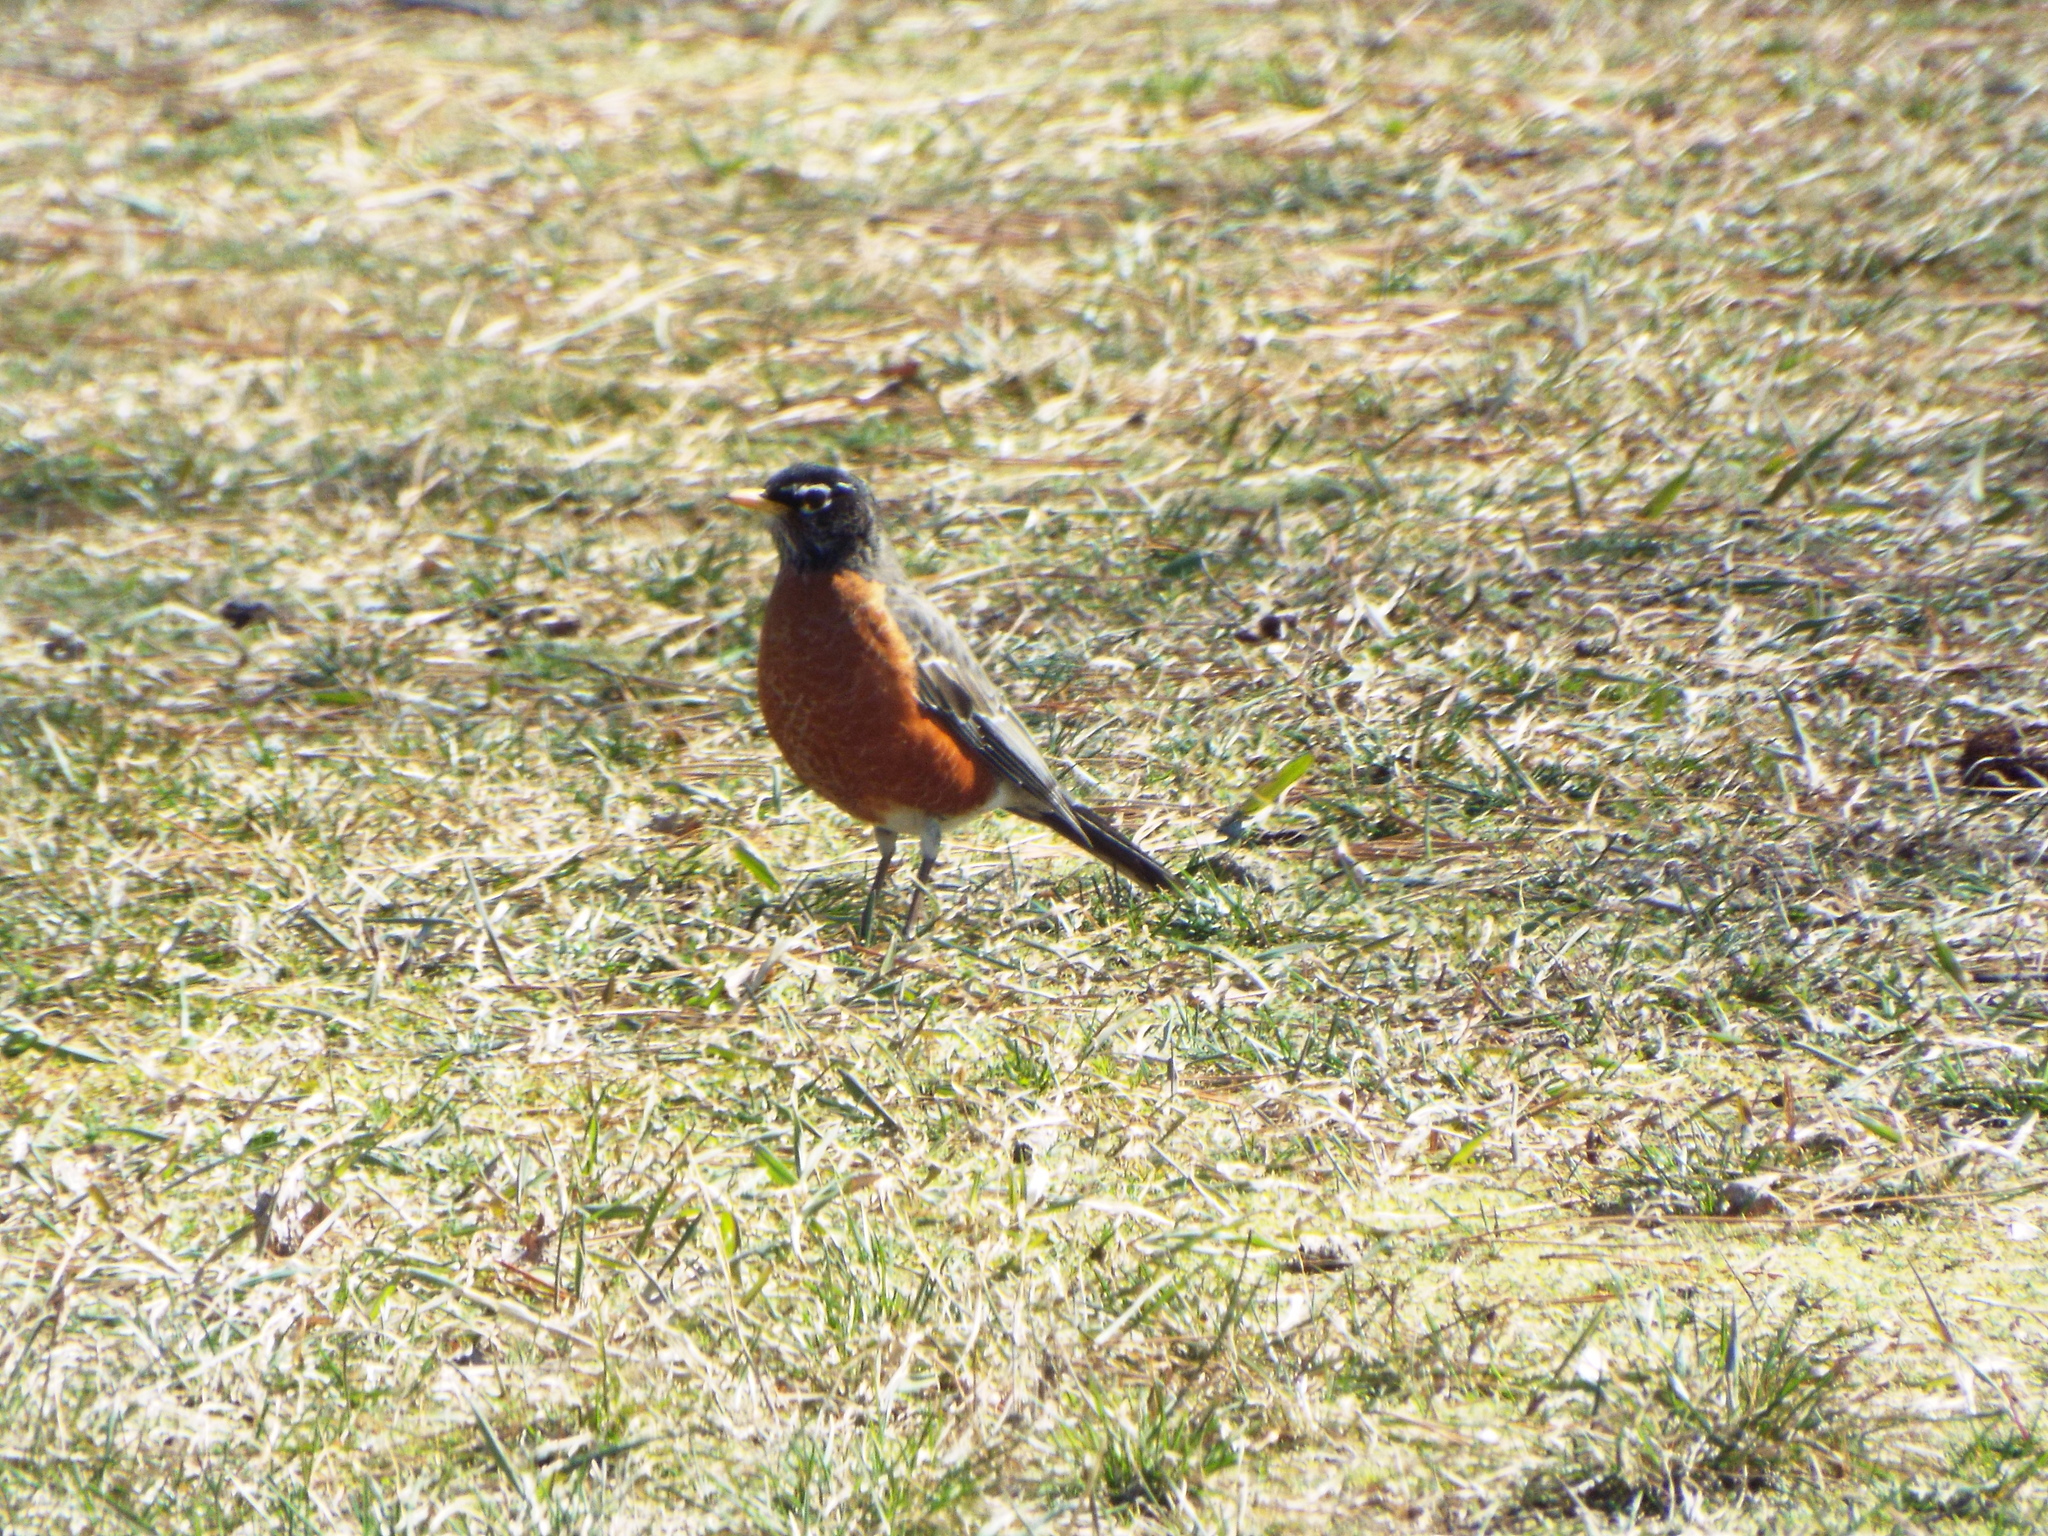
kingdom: Animalia
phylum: Chordata
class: Aves
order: Passeriformes
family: Turdidae
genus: Turdus
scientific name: Turdus migratorius
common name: American robin
